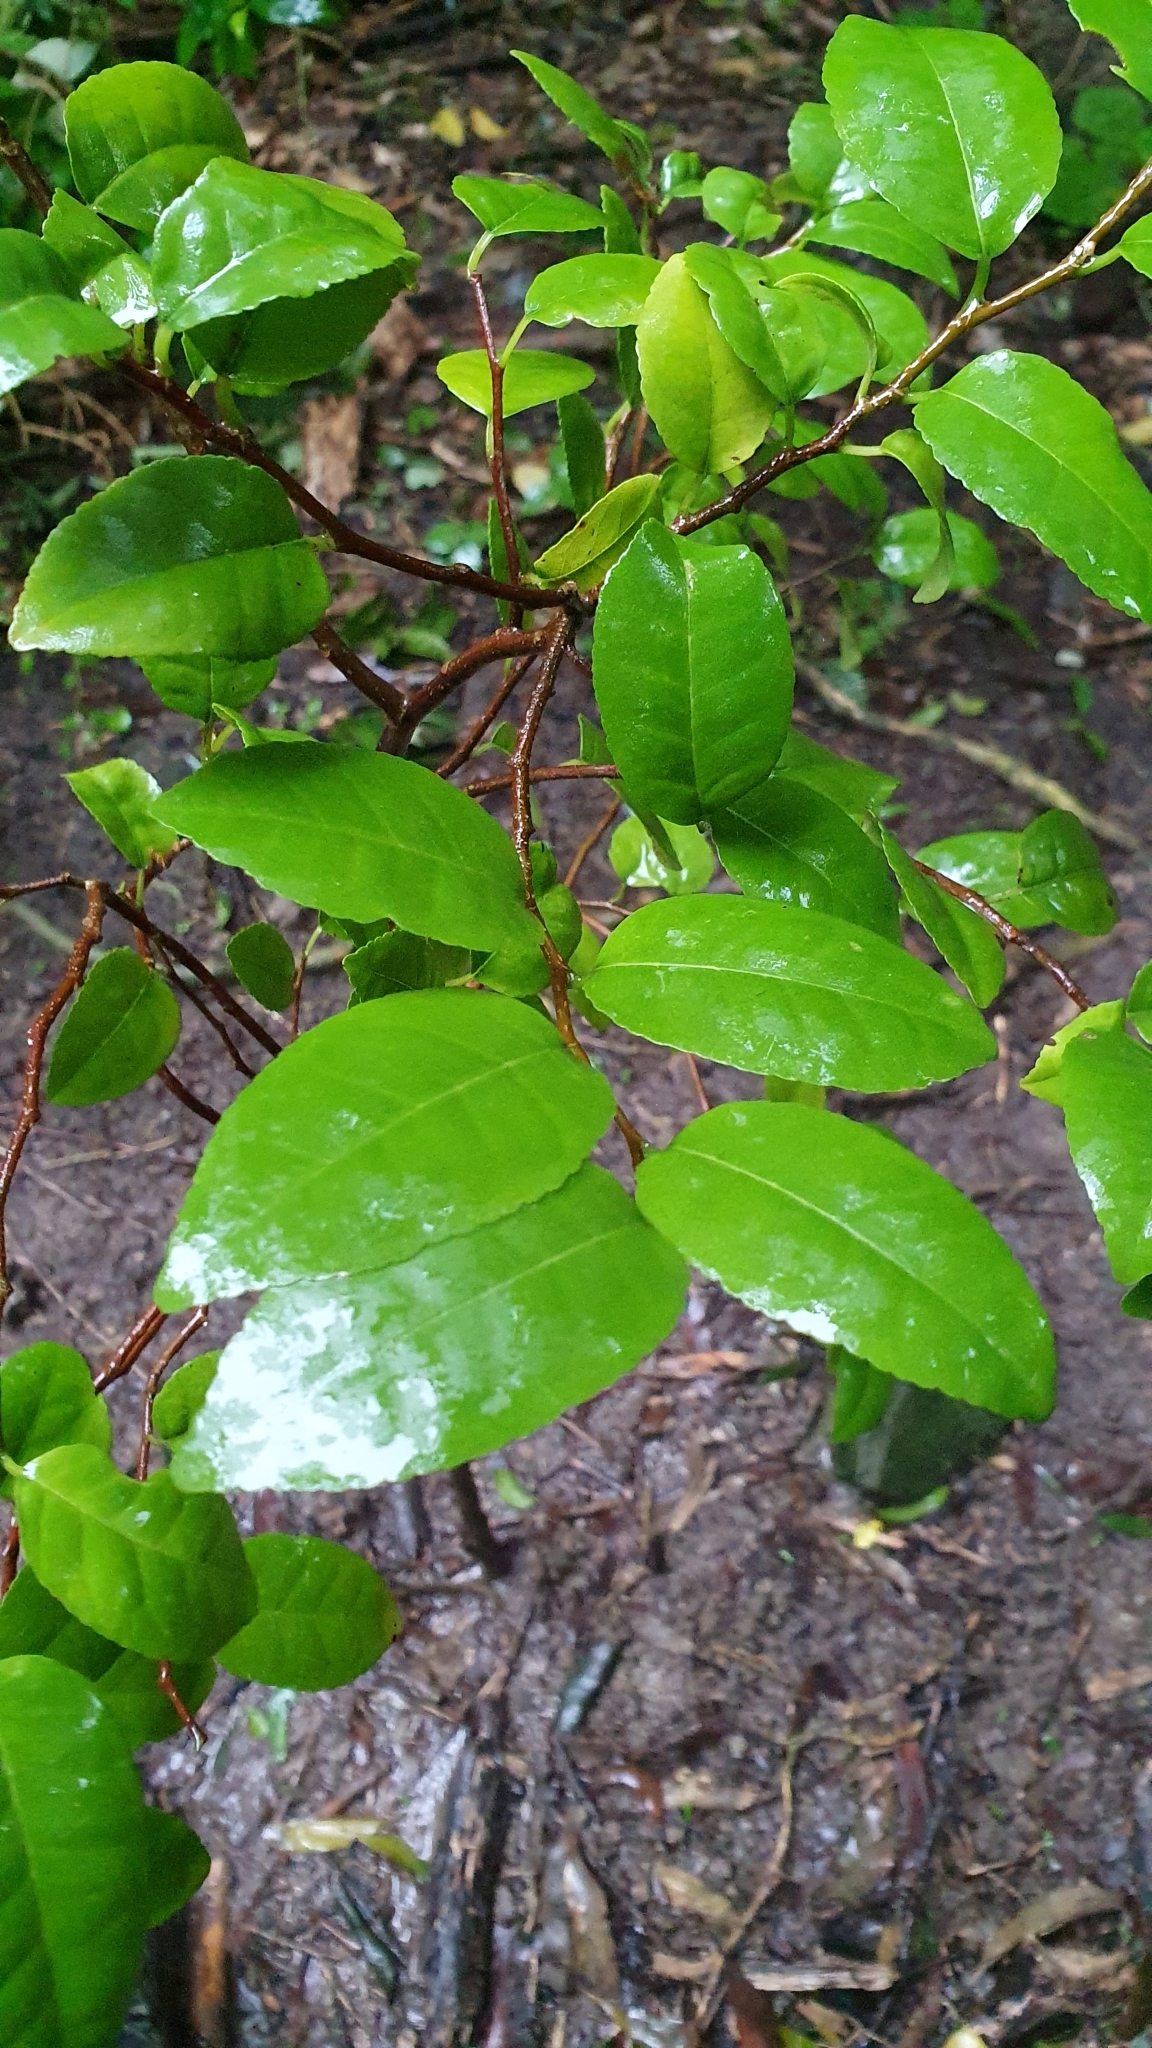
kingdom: Plantae
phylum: Tracheophyta
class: Magnoliopsida
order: Rosales
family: Moraceae
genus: Paratrophis
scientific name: Paratrophis banksii
